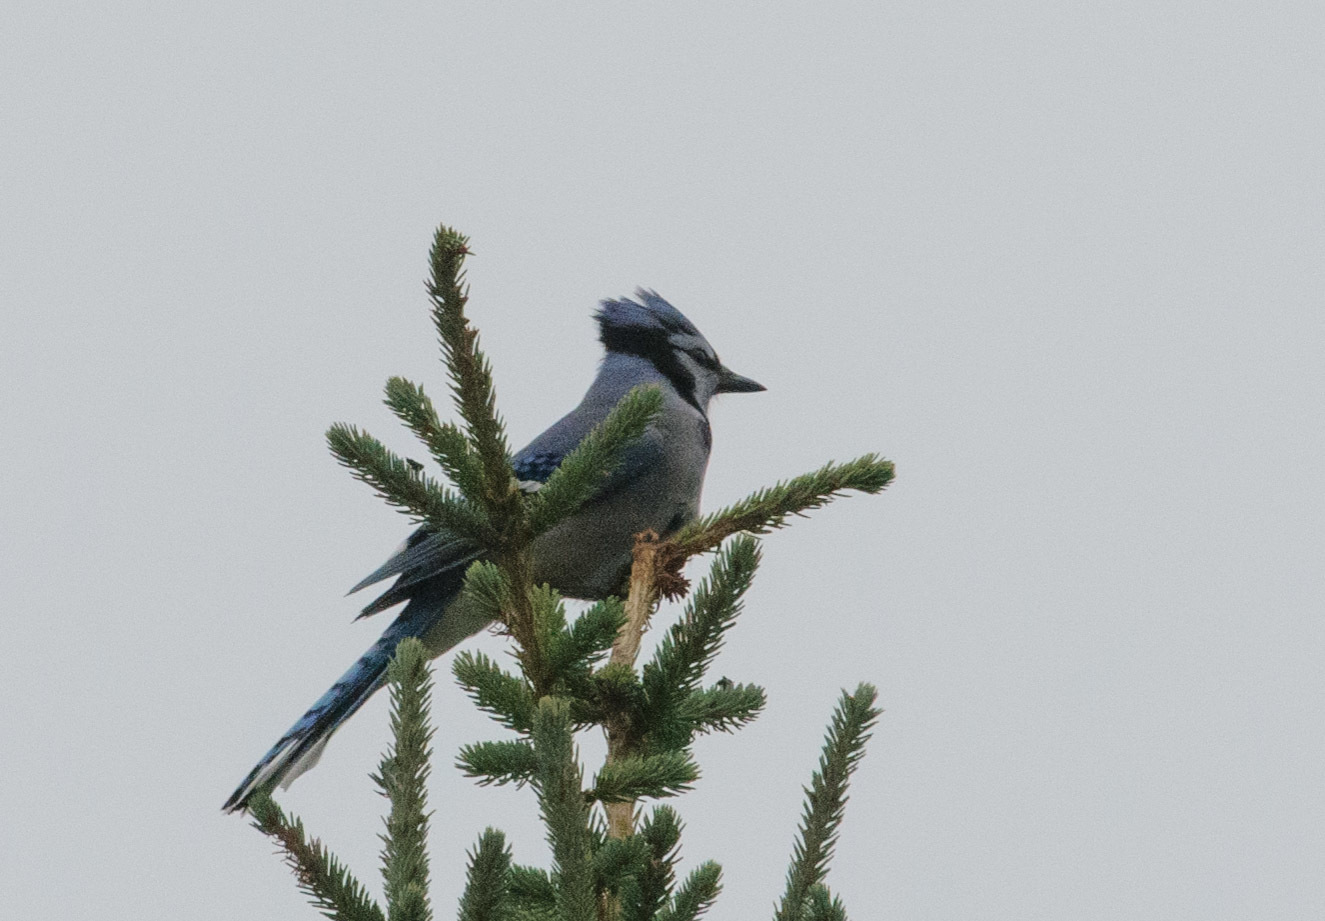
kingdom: Animalia
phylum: Chordata
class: Aves
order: Passeriformes
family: Corvidae
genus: Cyanocitta
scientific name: Cyanocitta cristata
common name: Blue jay
